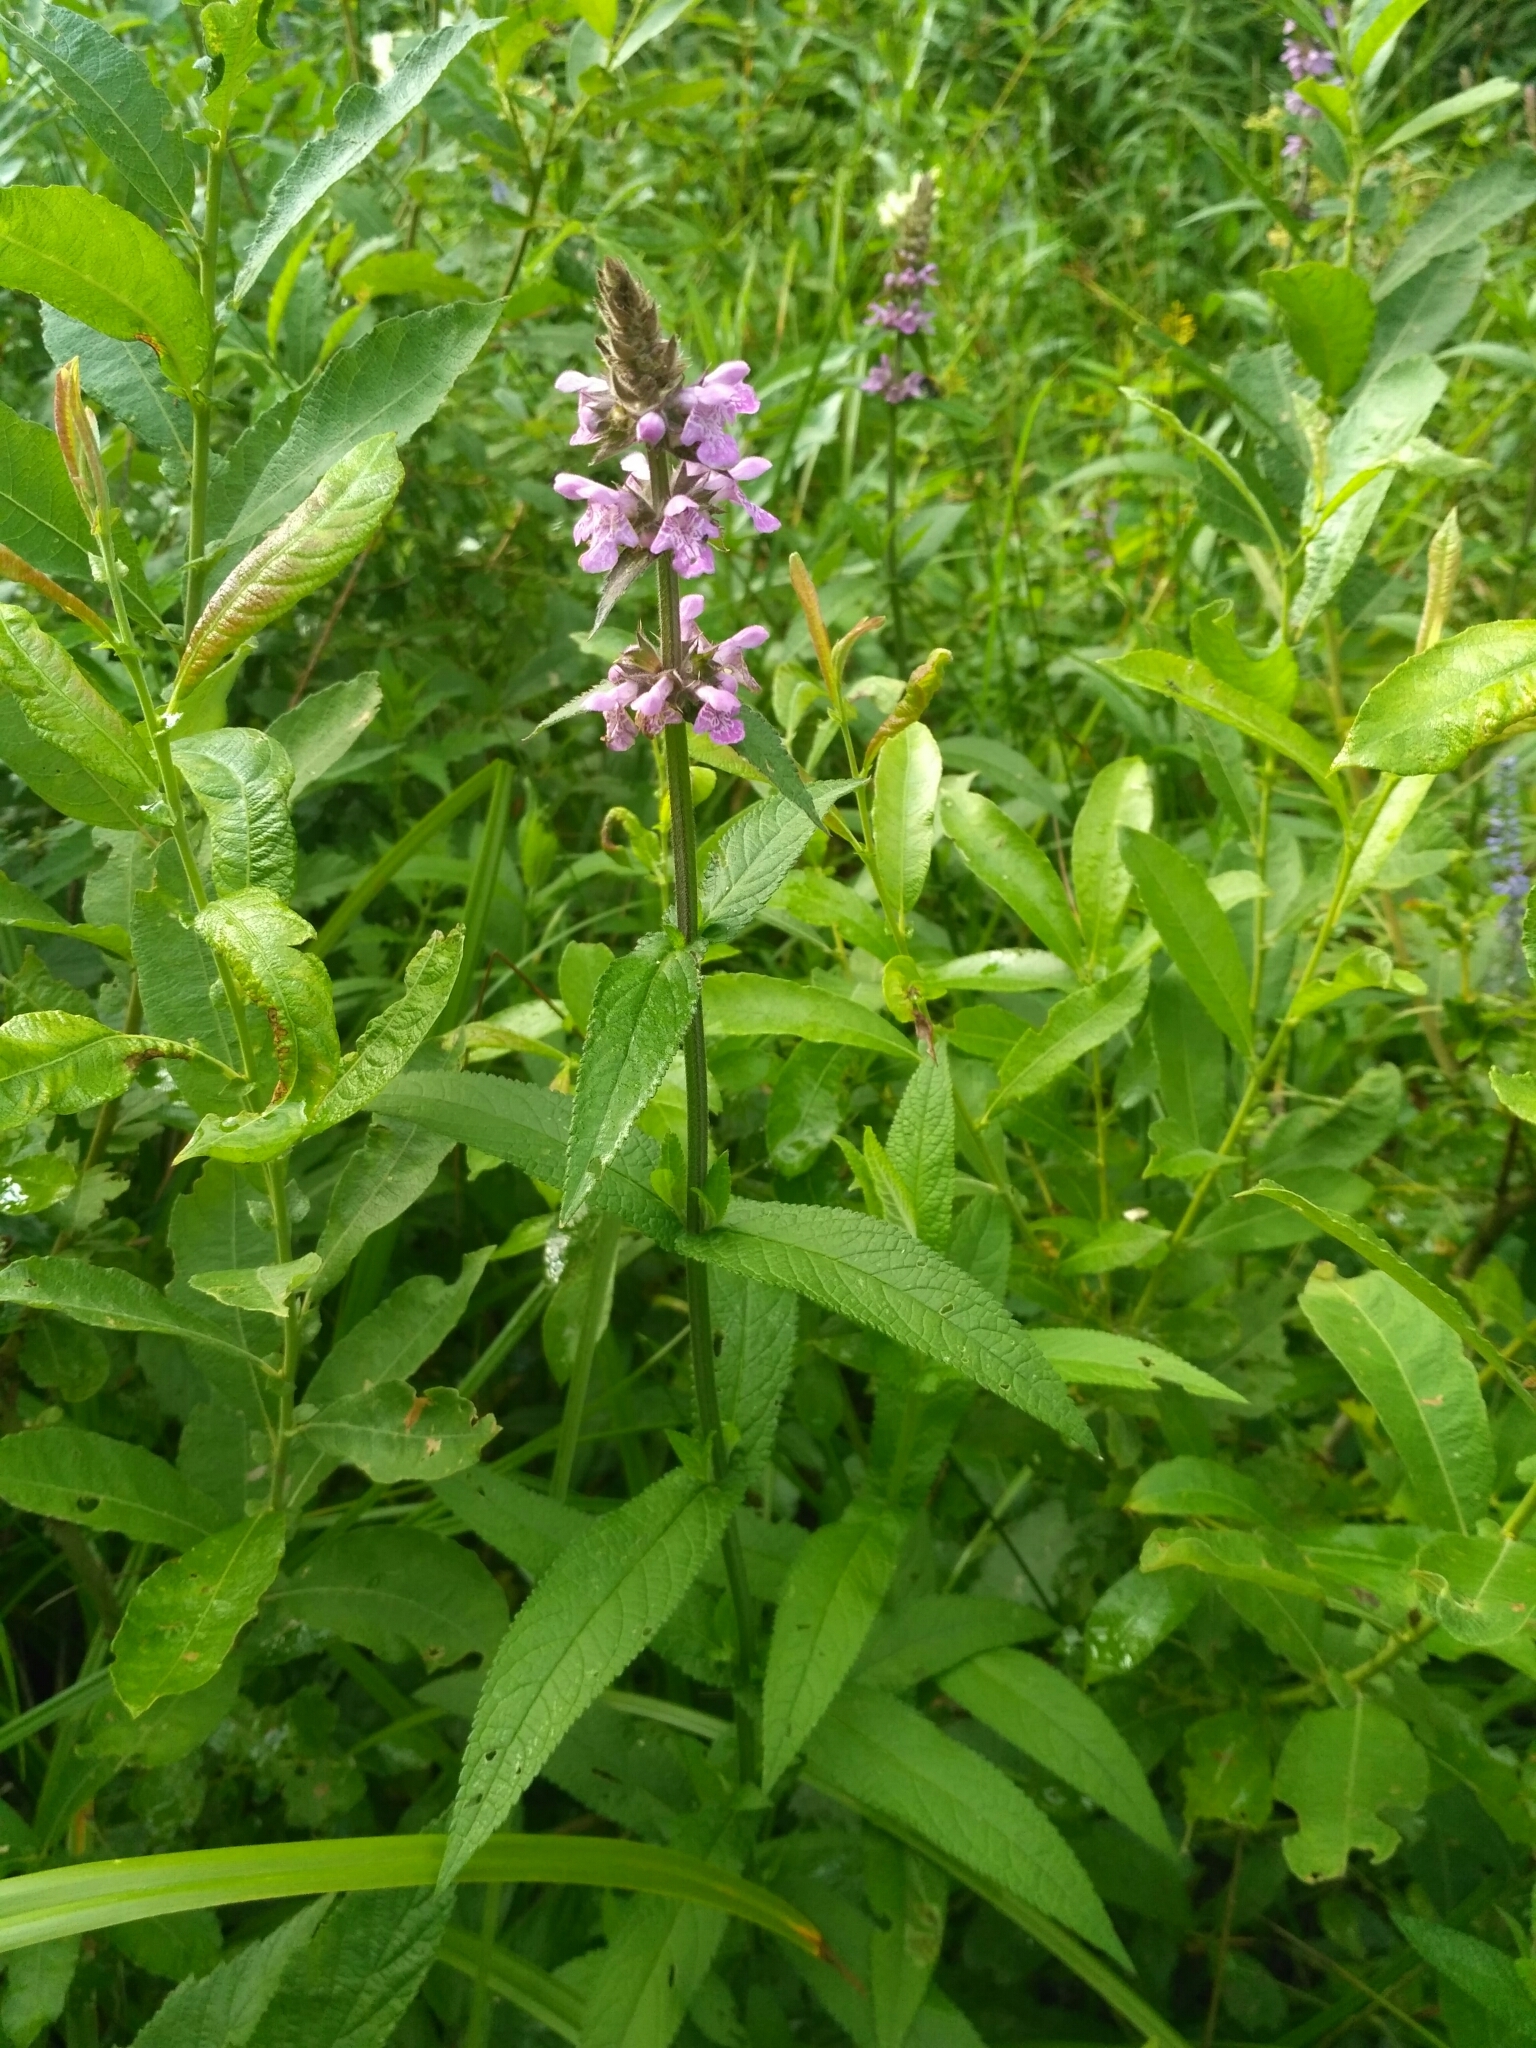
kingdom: Plantae
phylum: Tracheophyta
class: Magnoliopsida
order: Lamiales
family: Lamiaceae
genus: Stachys
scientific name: Stachys palustris
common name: Marsh woundwort
